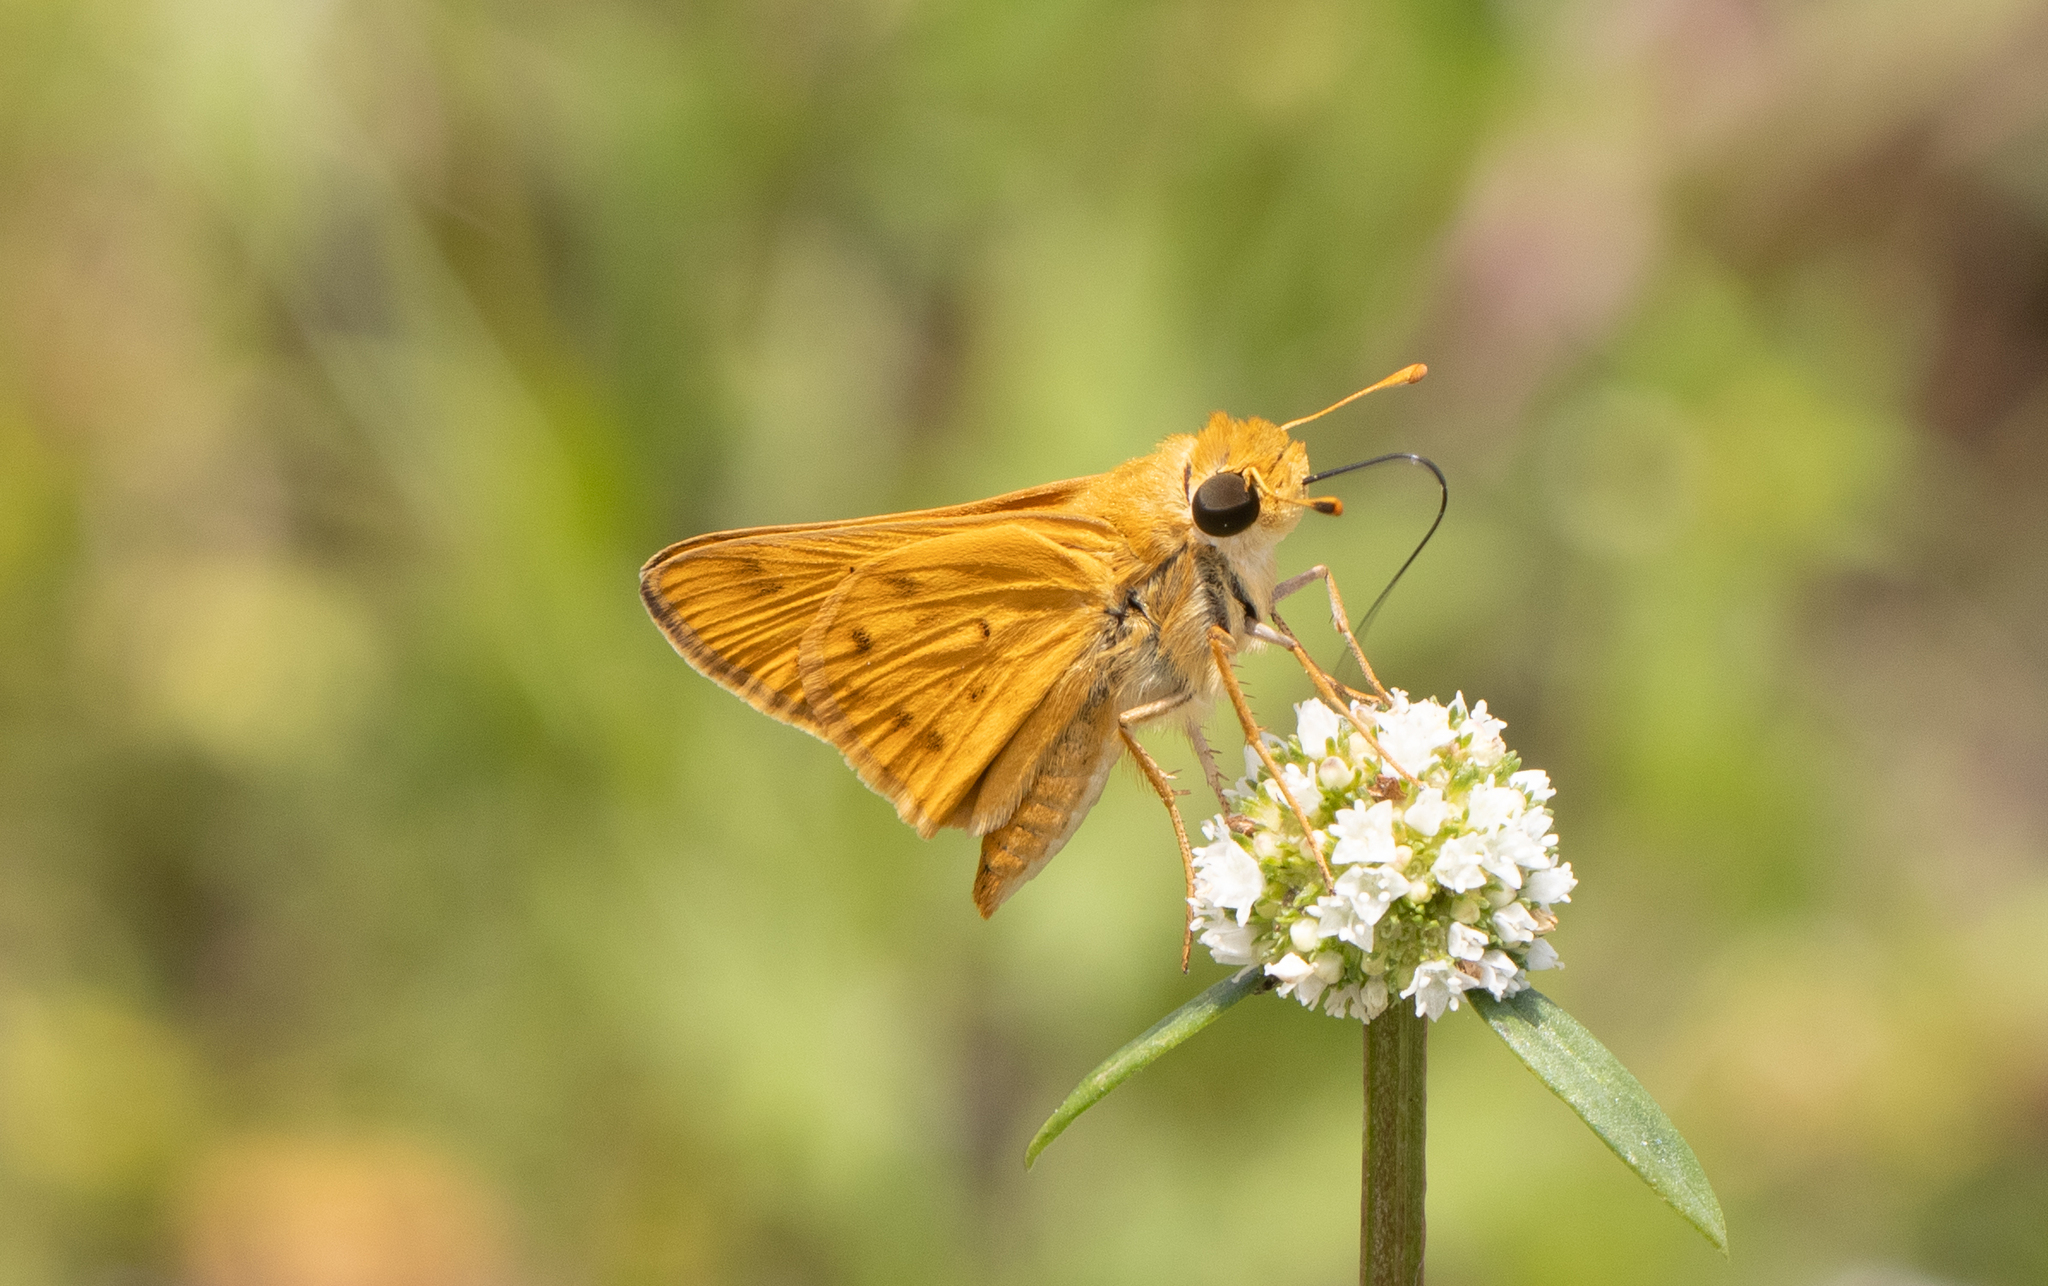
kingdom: Animalia
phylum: Arthropoda
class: Insecta
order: Lepidoptera
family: Hesperiidae
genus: Hylephila
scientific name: Hylephila phyleus
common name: Fiery skipper
